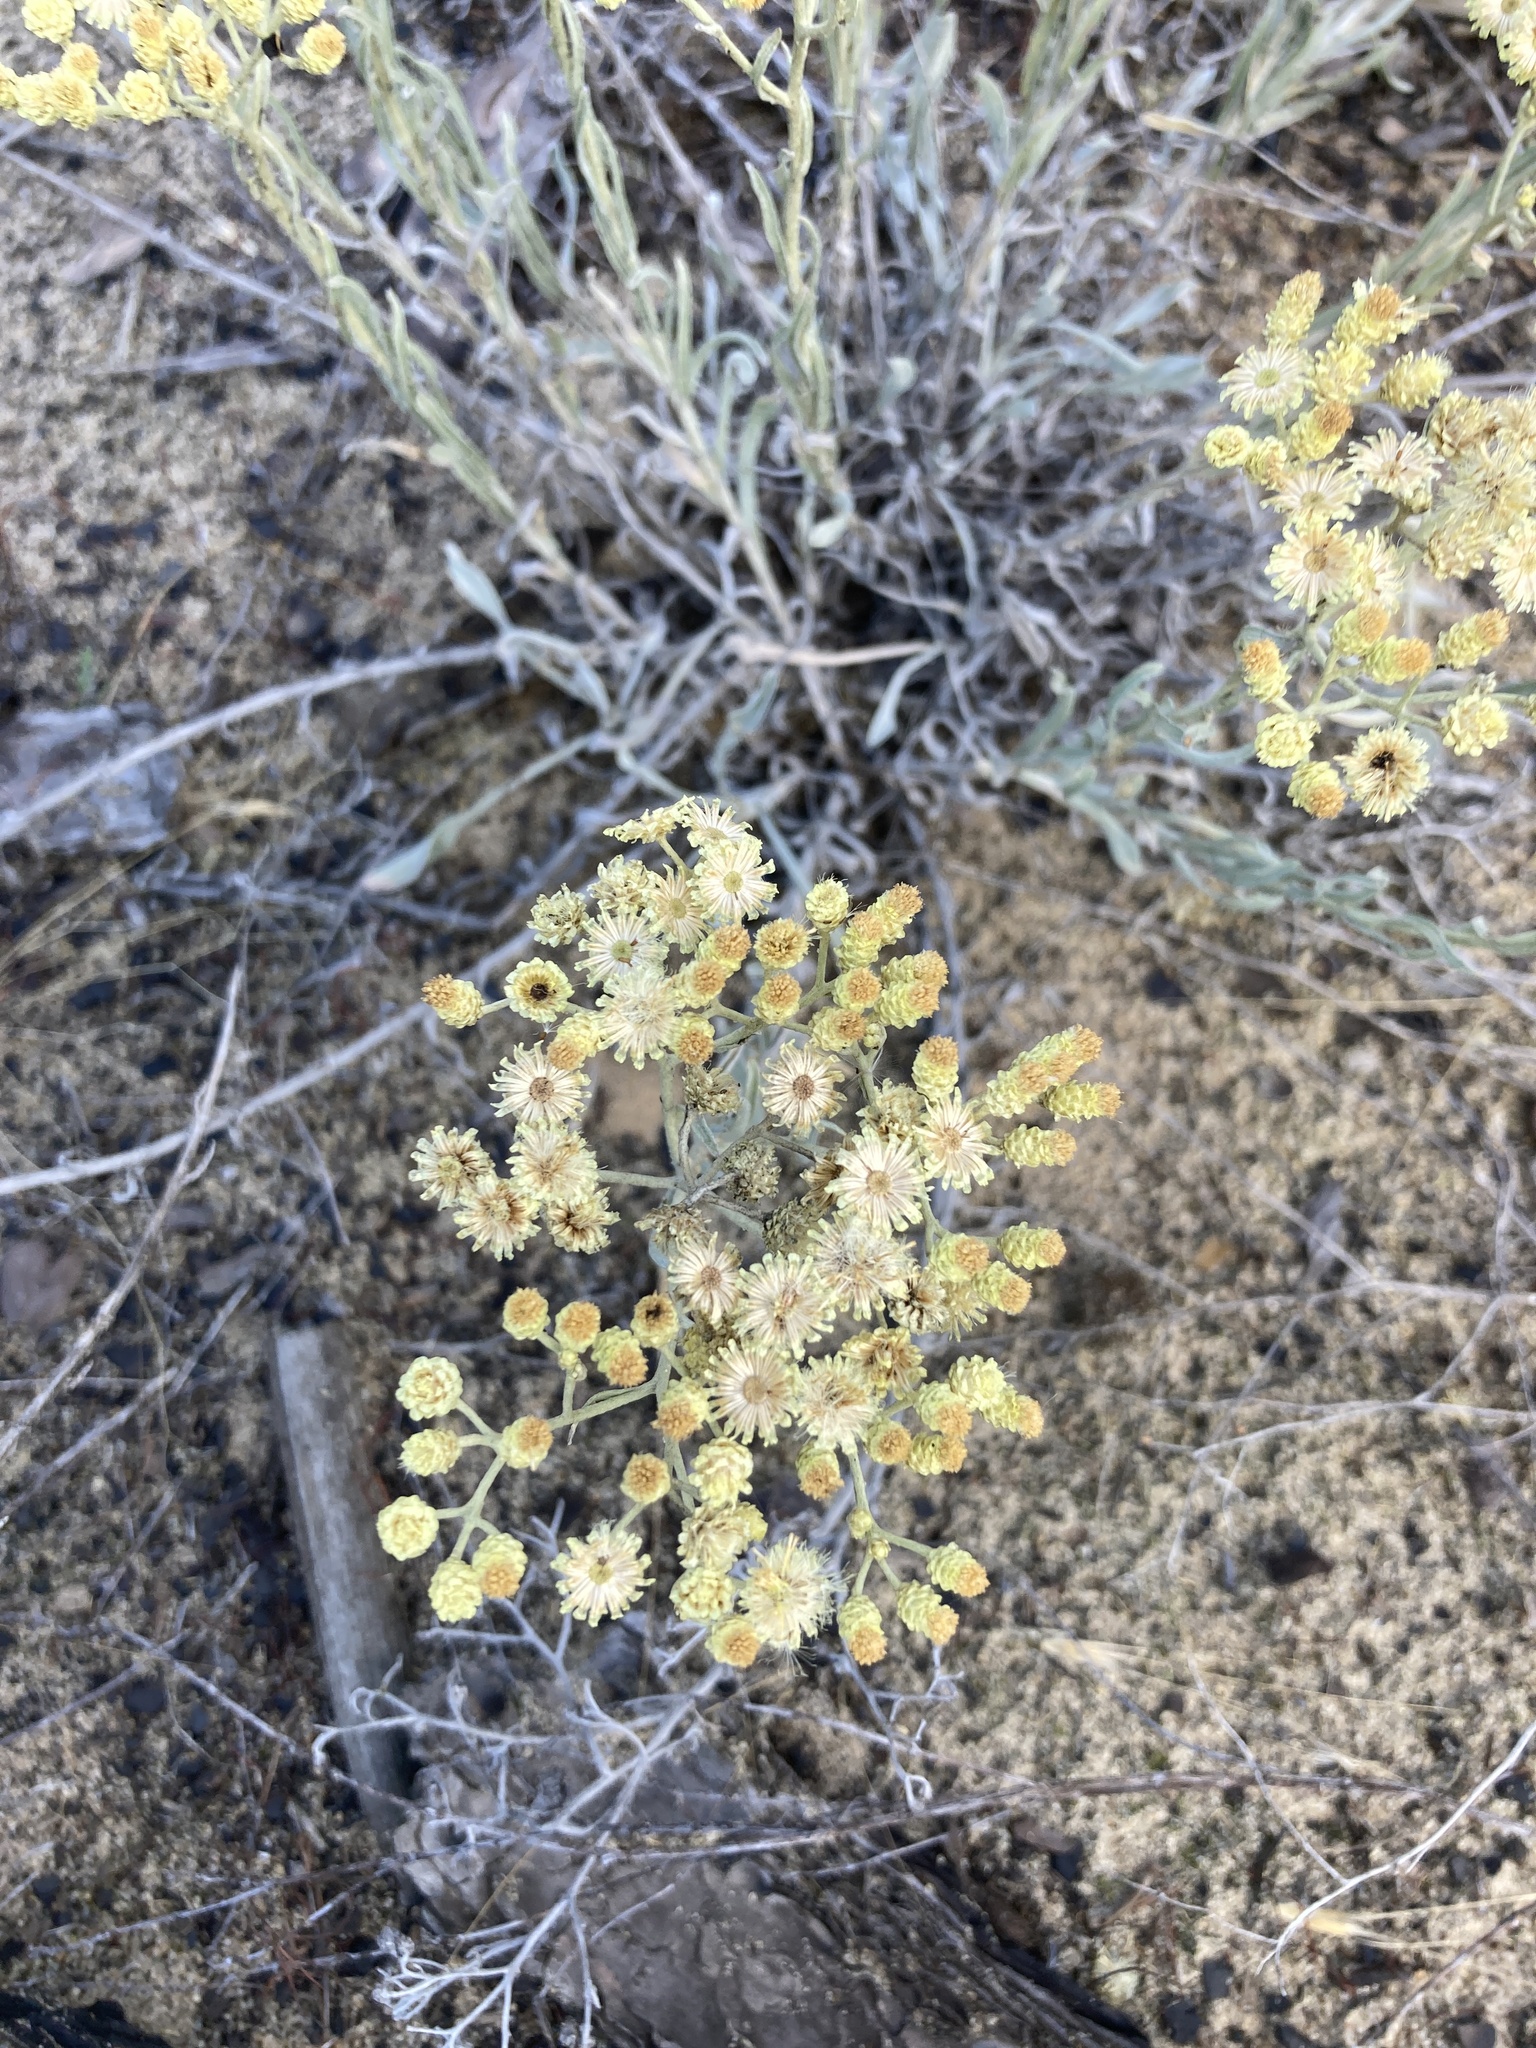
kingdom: Plantae
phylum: Tracheophyta
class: Magnoliopsida
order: Asterales
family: Asteraceae
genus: Helichrysum
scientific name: Helichrysum arenarium
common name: Strawflower
